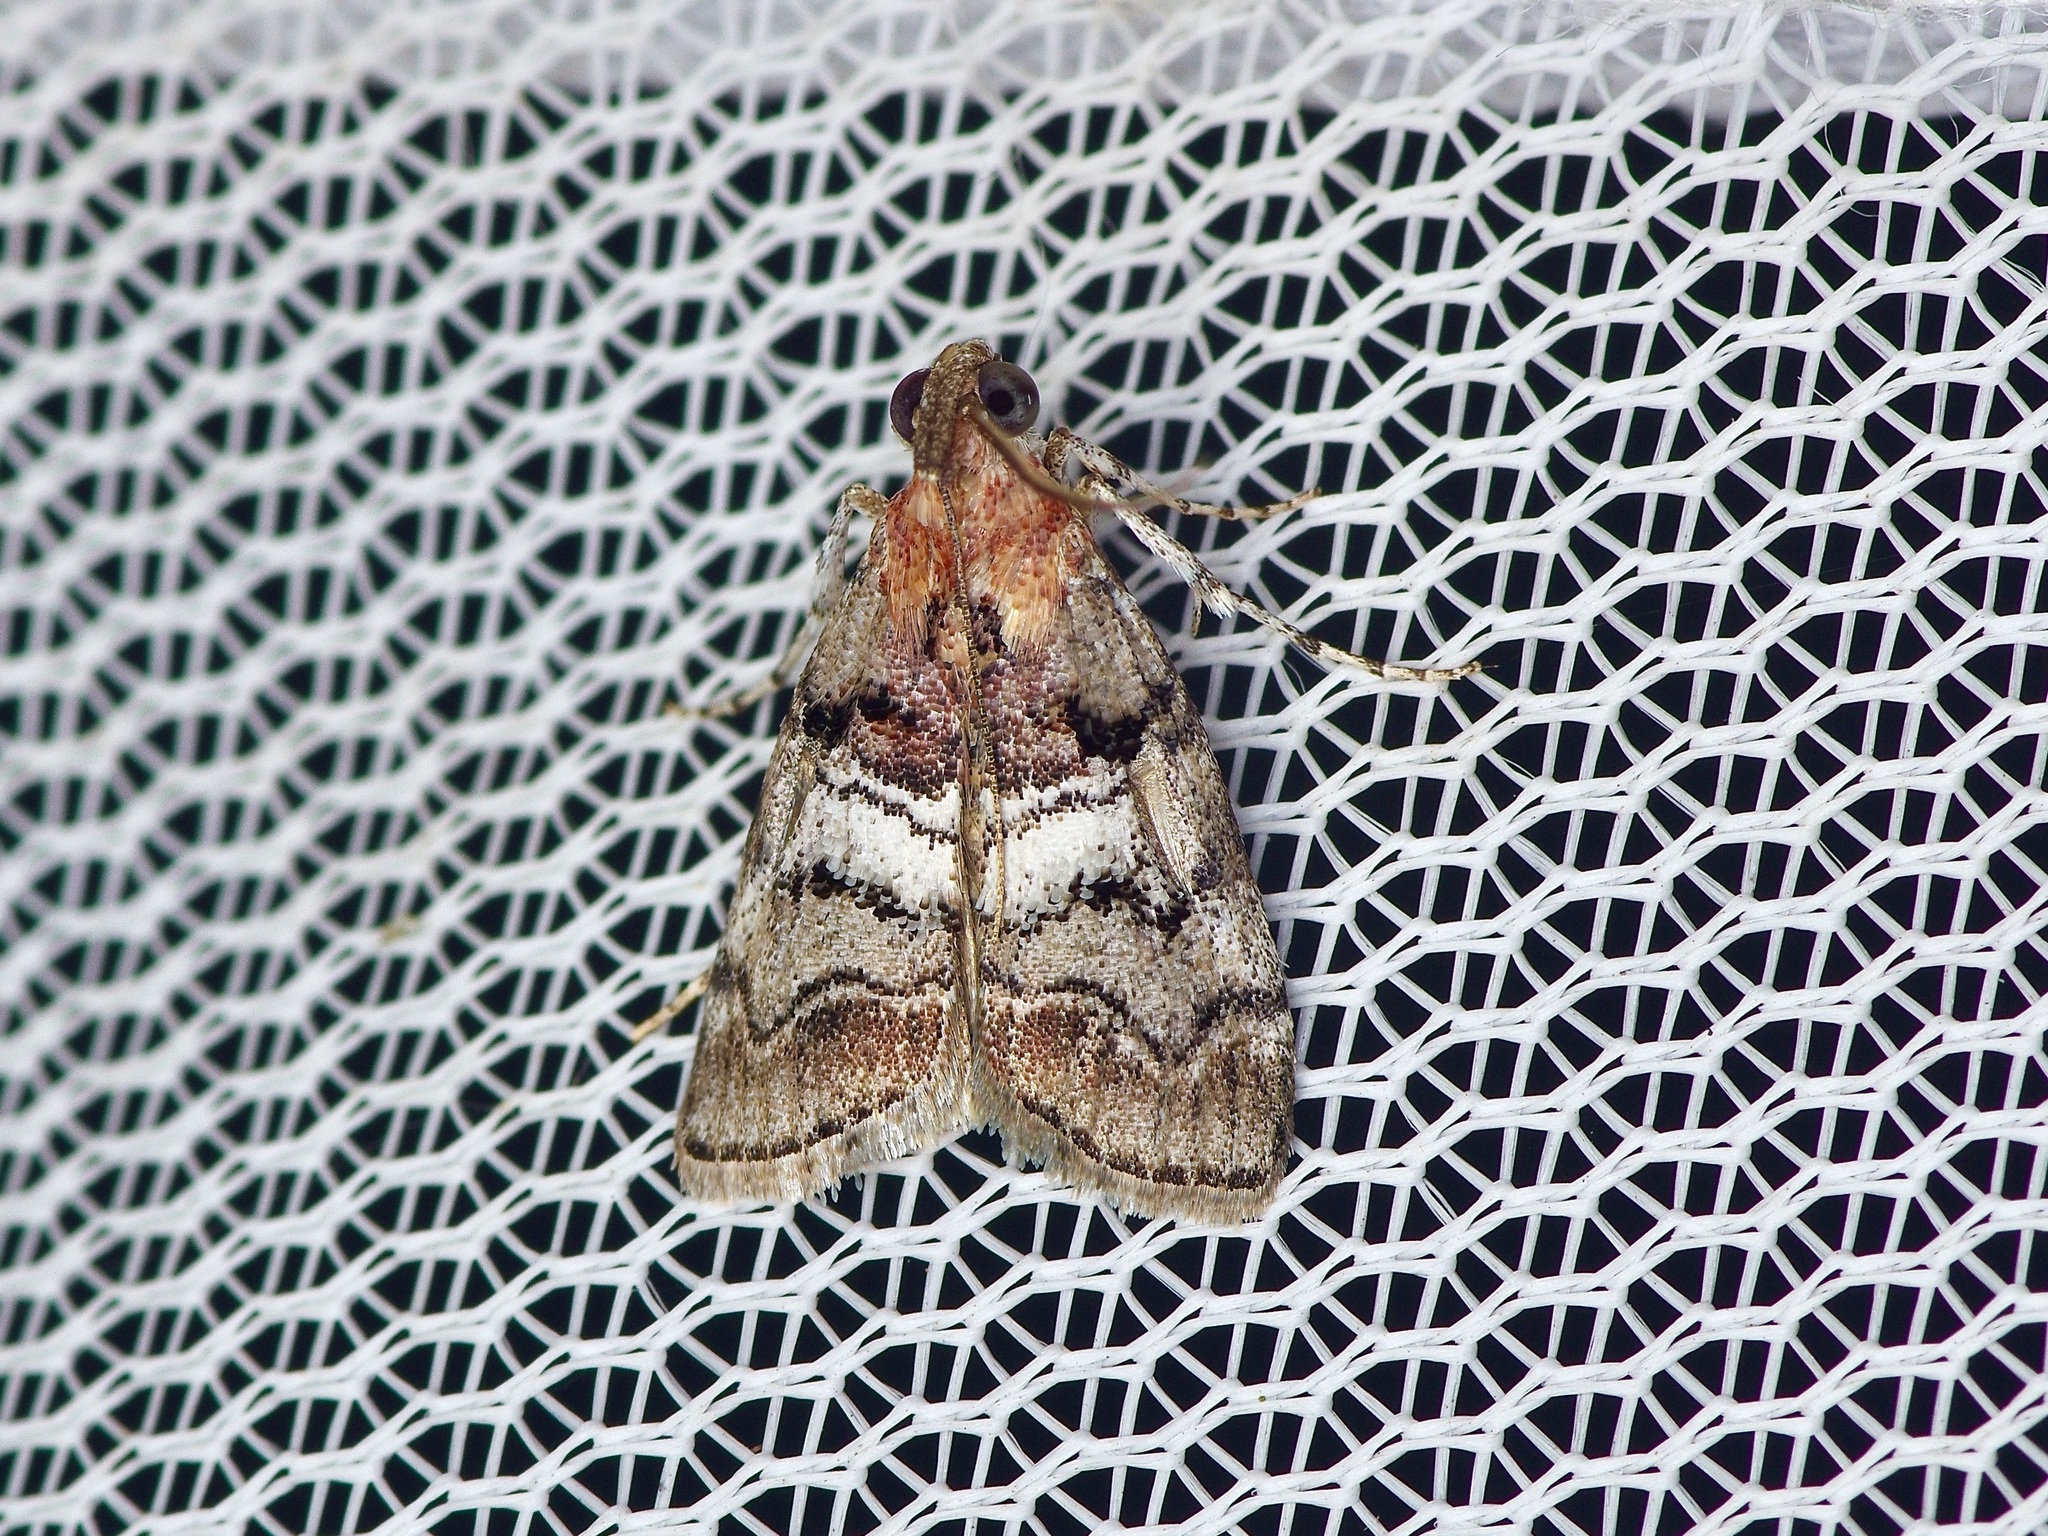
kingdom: Animalia
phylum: Arthropoda
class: Insecta
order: Lepidoptera
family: Pyralidae
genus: Pococera
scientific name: Pococera maritimalis
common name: Gray-banded pococera moth
